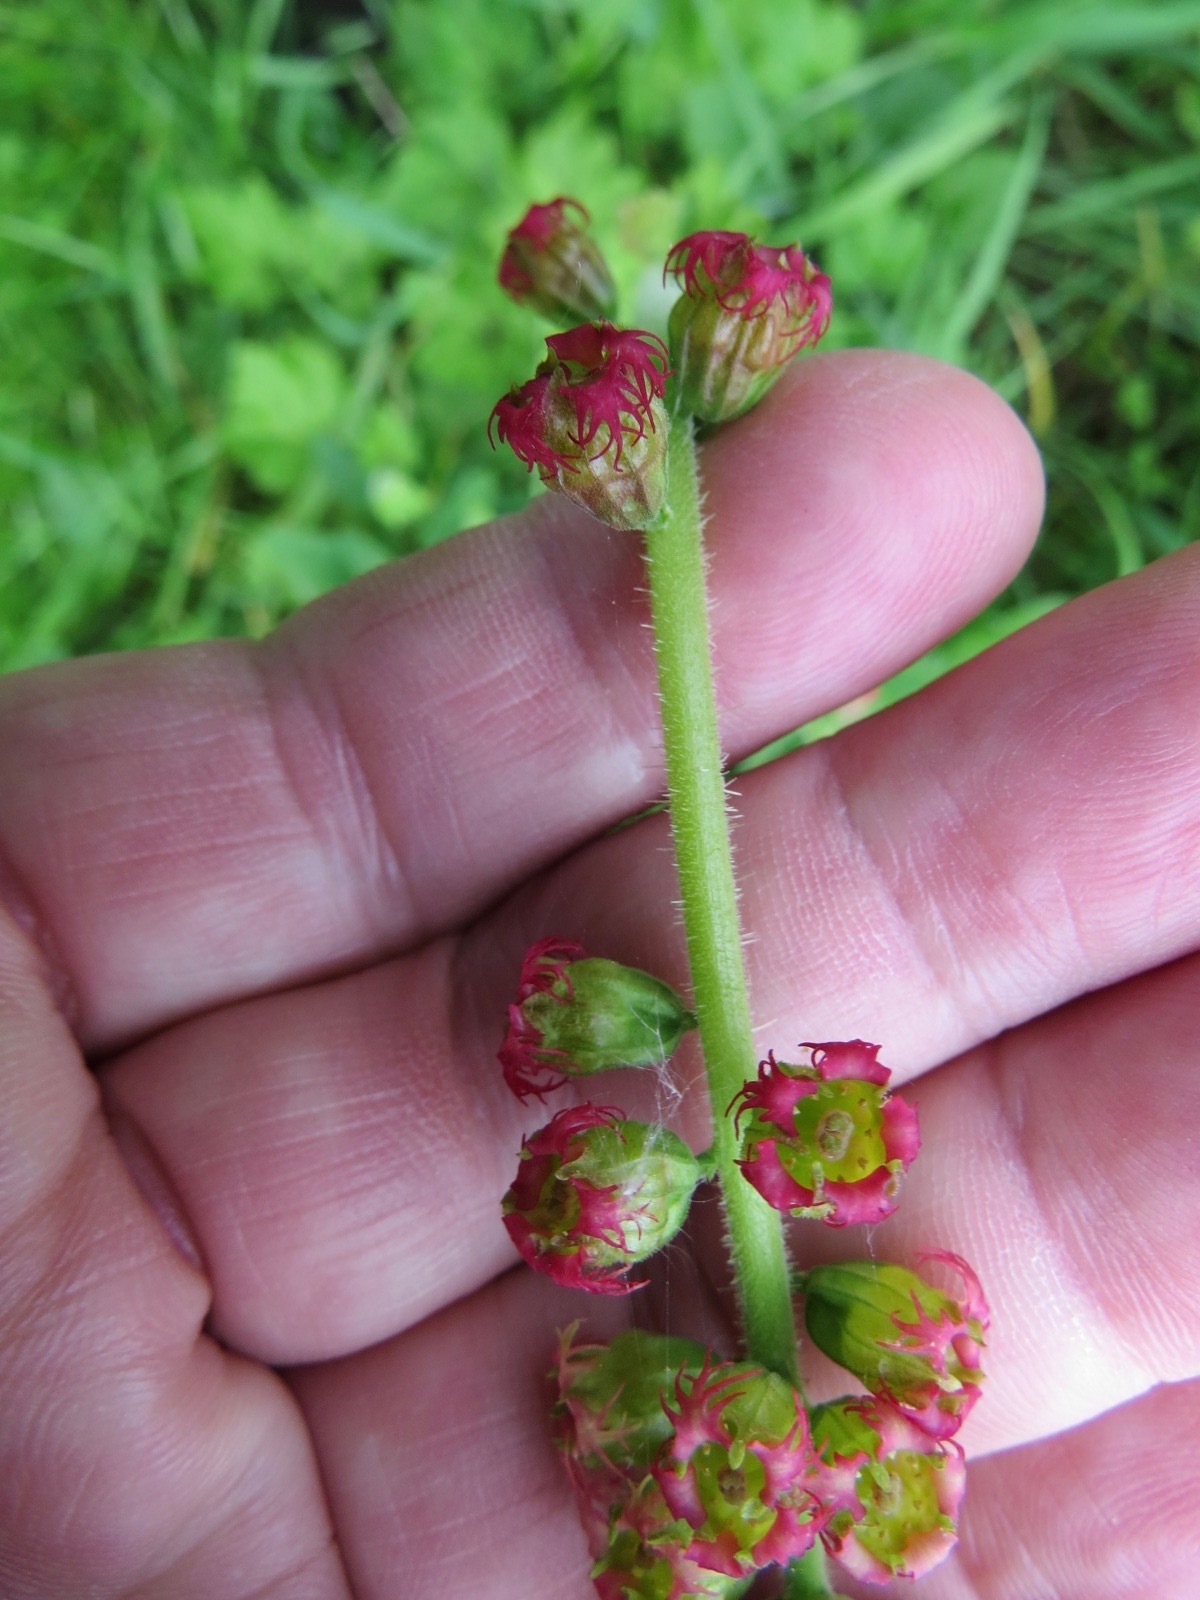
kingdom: Plantae
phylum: Tracheophyta
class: Magnoliopsida
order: Saxifragales
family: Saxifragaceae
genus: Tellima
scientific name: Tellima grandiflora
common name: Fringecups
